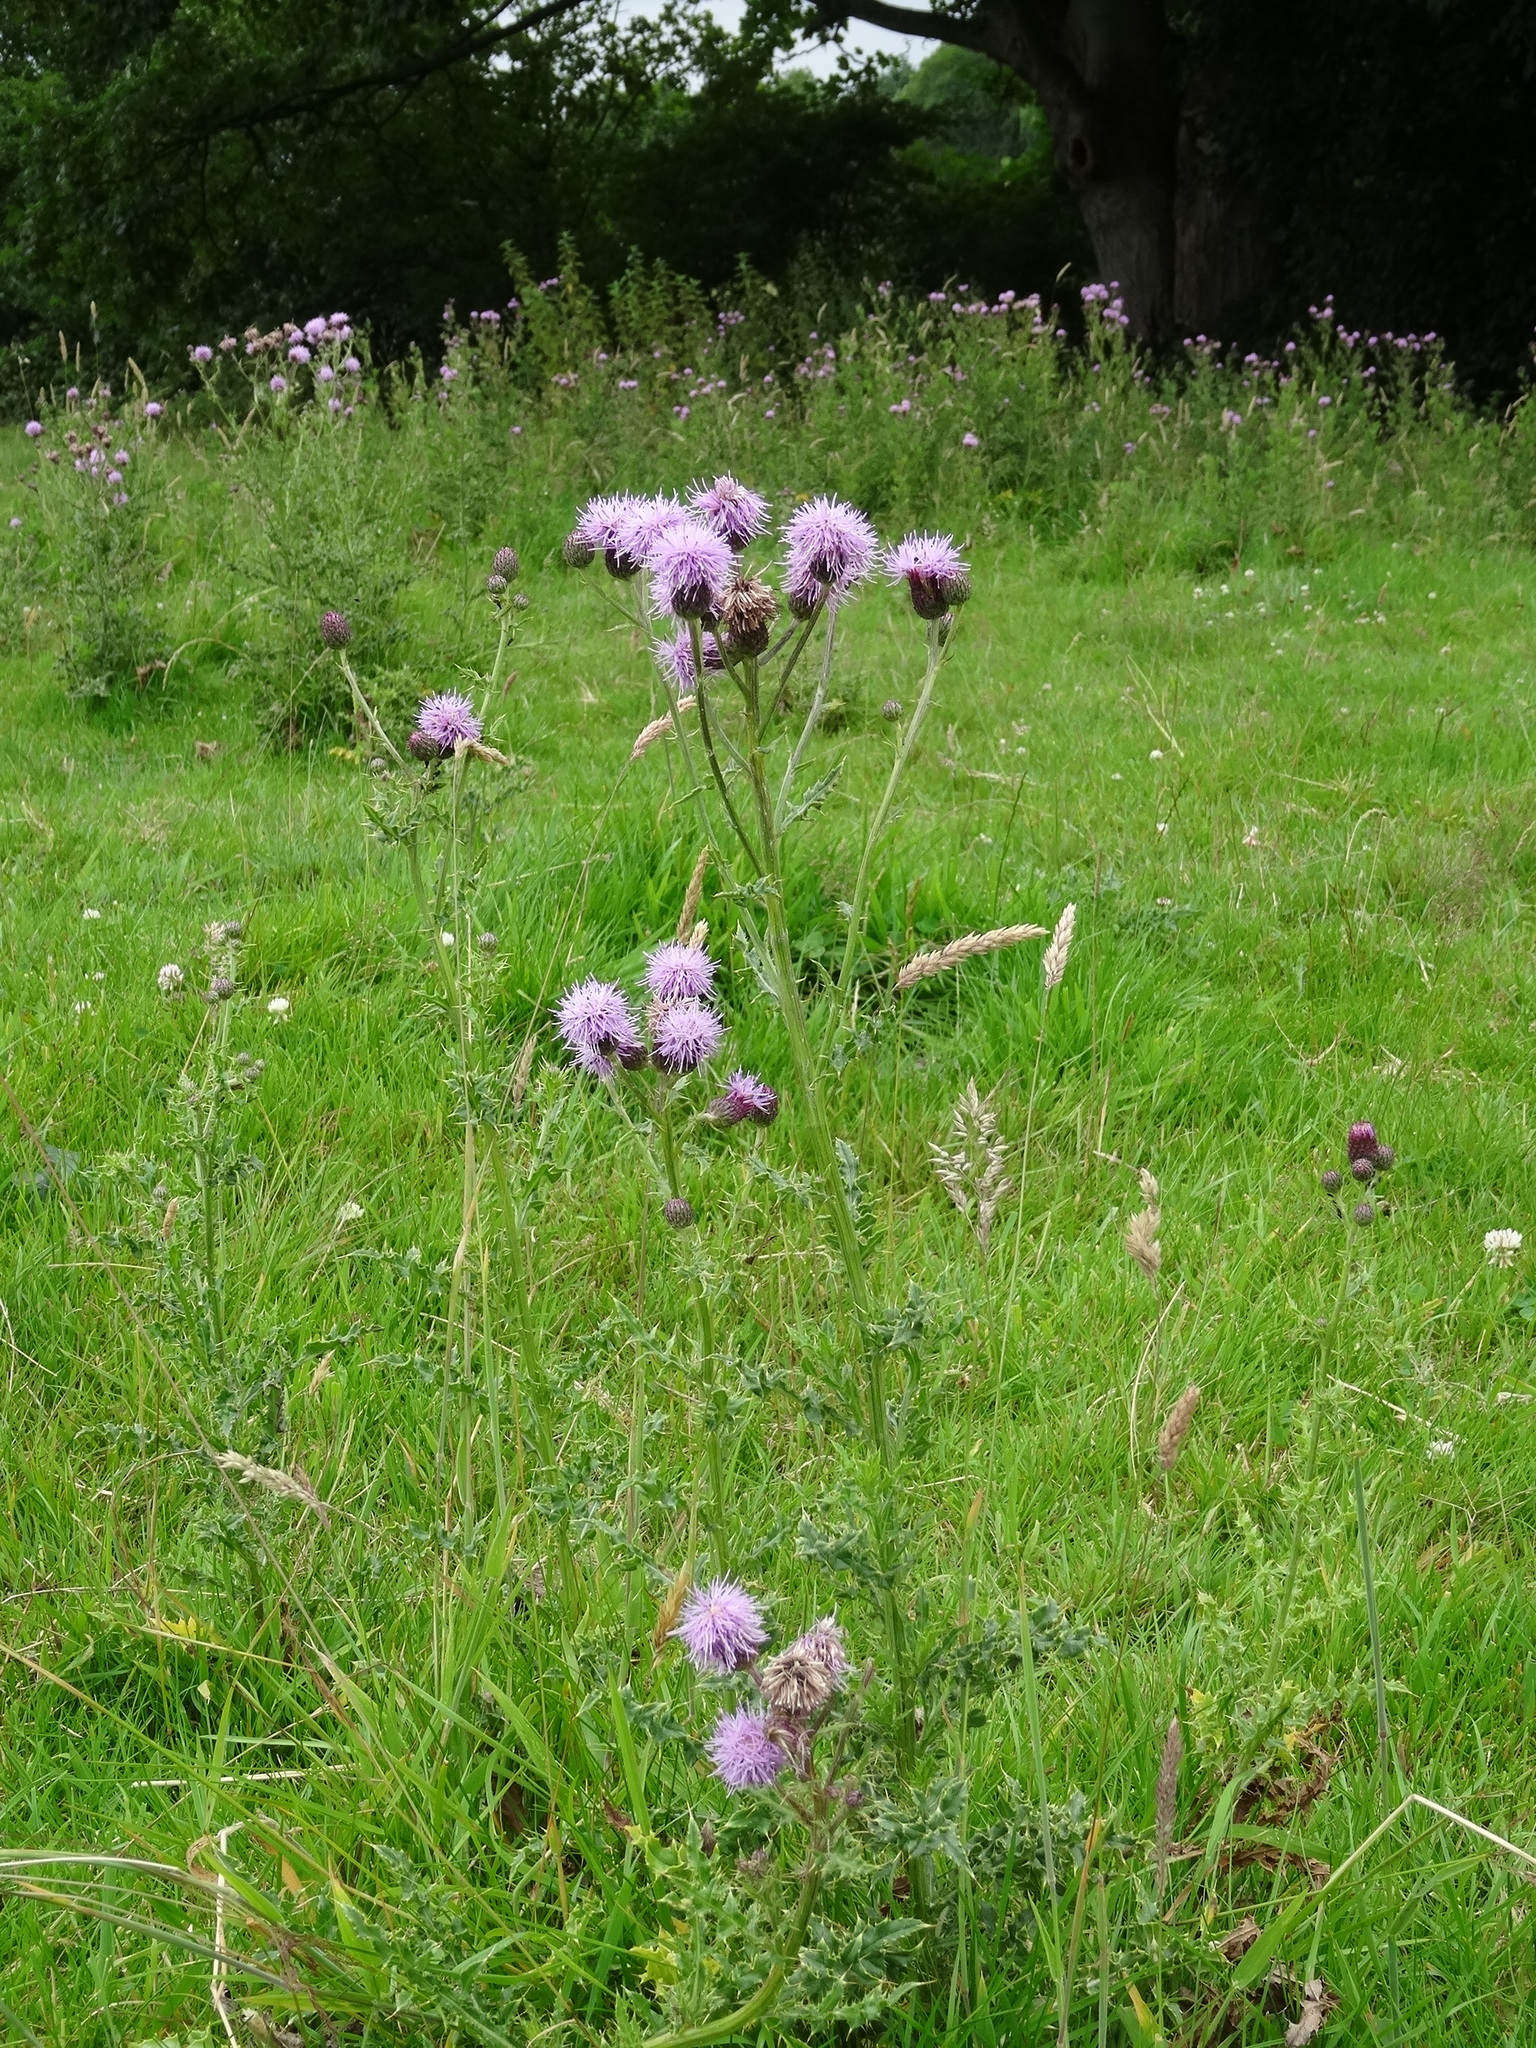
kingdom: Plantae
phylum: Tracheophyta
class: Magnoliopsida
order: Asterales
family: Asteraceae
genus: Cirsium
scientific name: Cirsium arvense
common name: Creeping thistle
